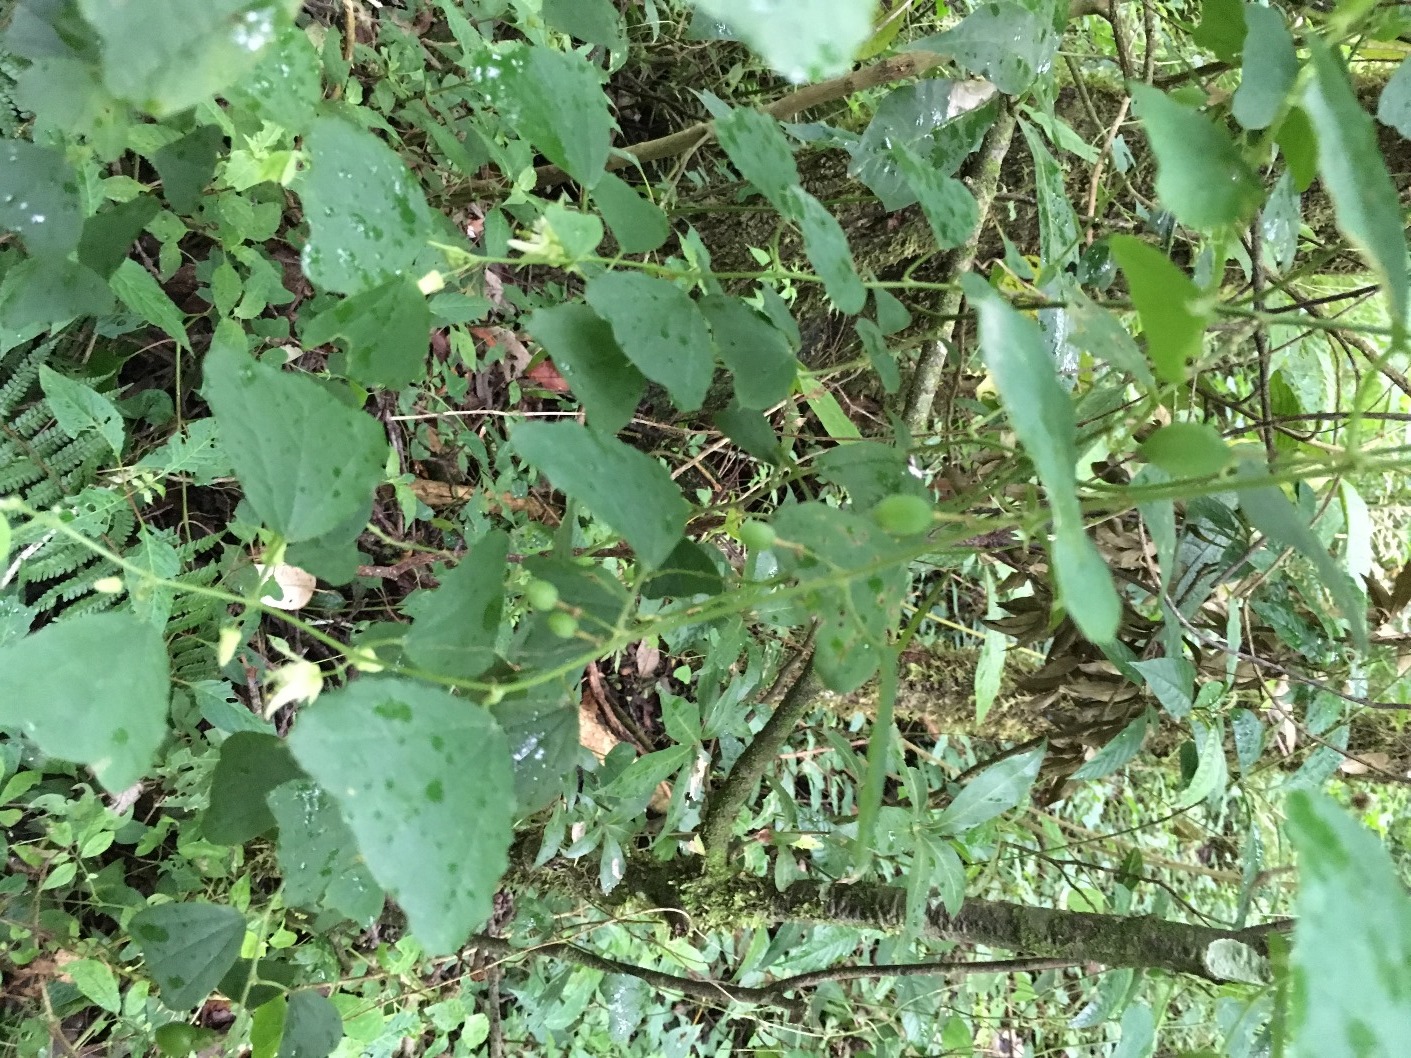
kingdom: Plantae
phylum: Tracheophyta
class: Magnoliopsida
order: Malpighiales
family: Passifloraceae
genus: Passiflora
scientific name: Passiflora pavonis
